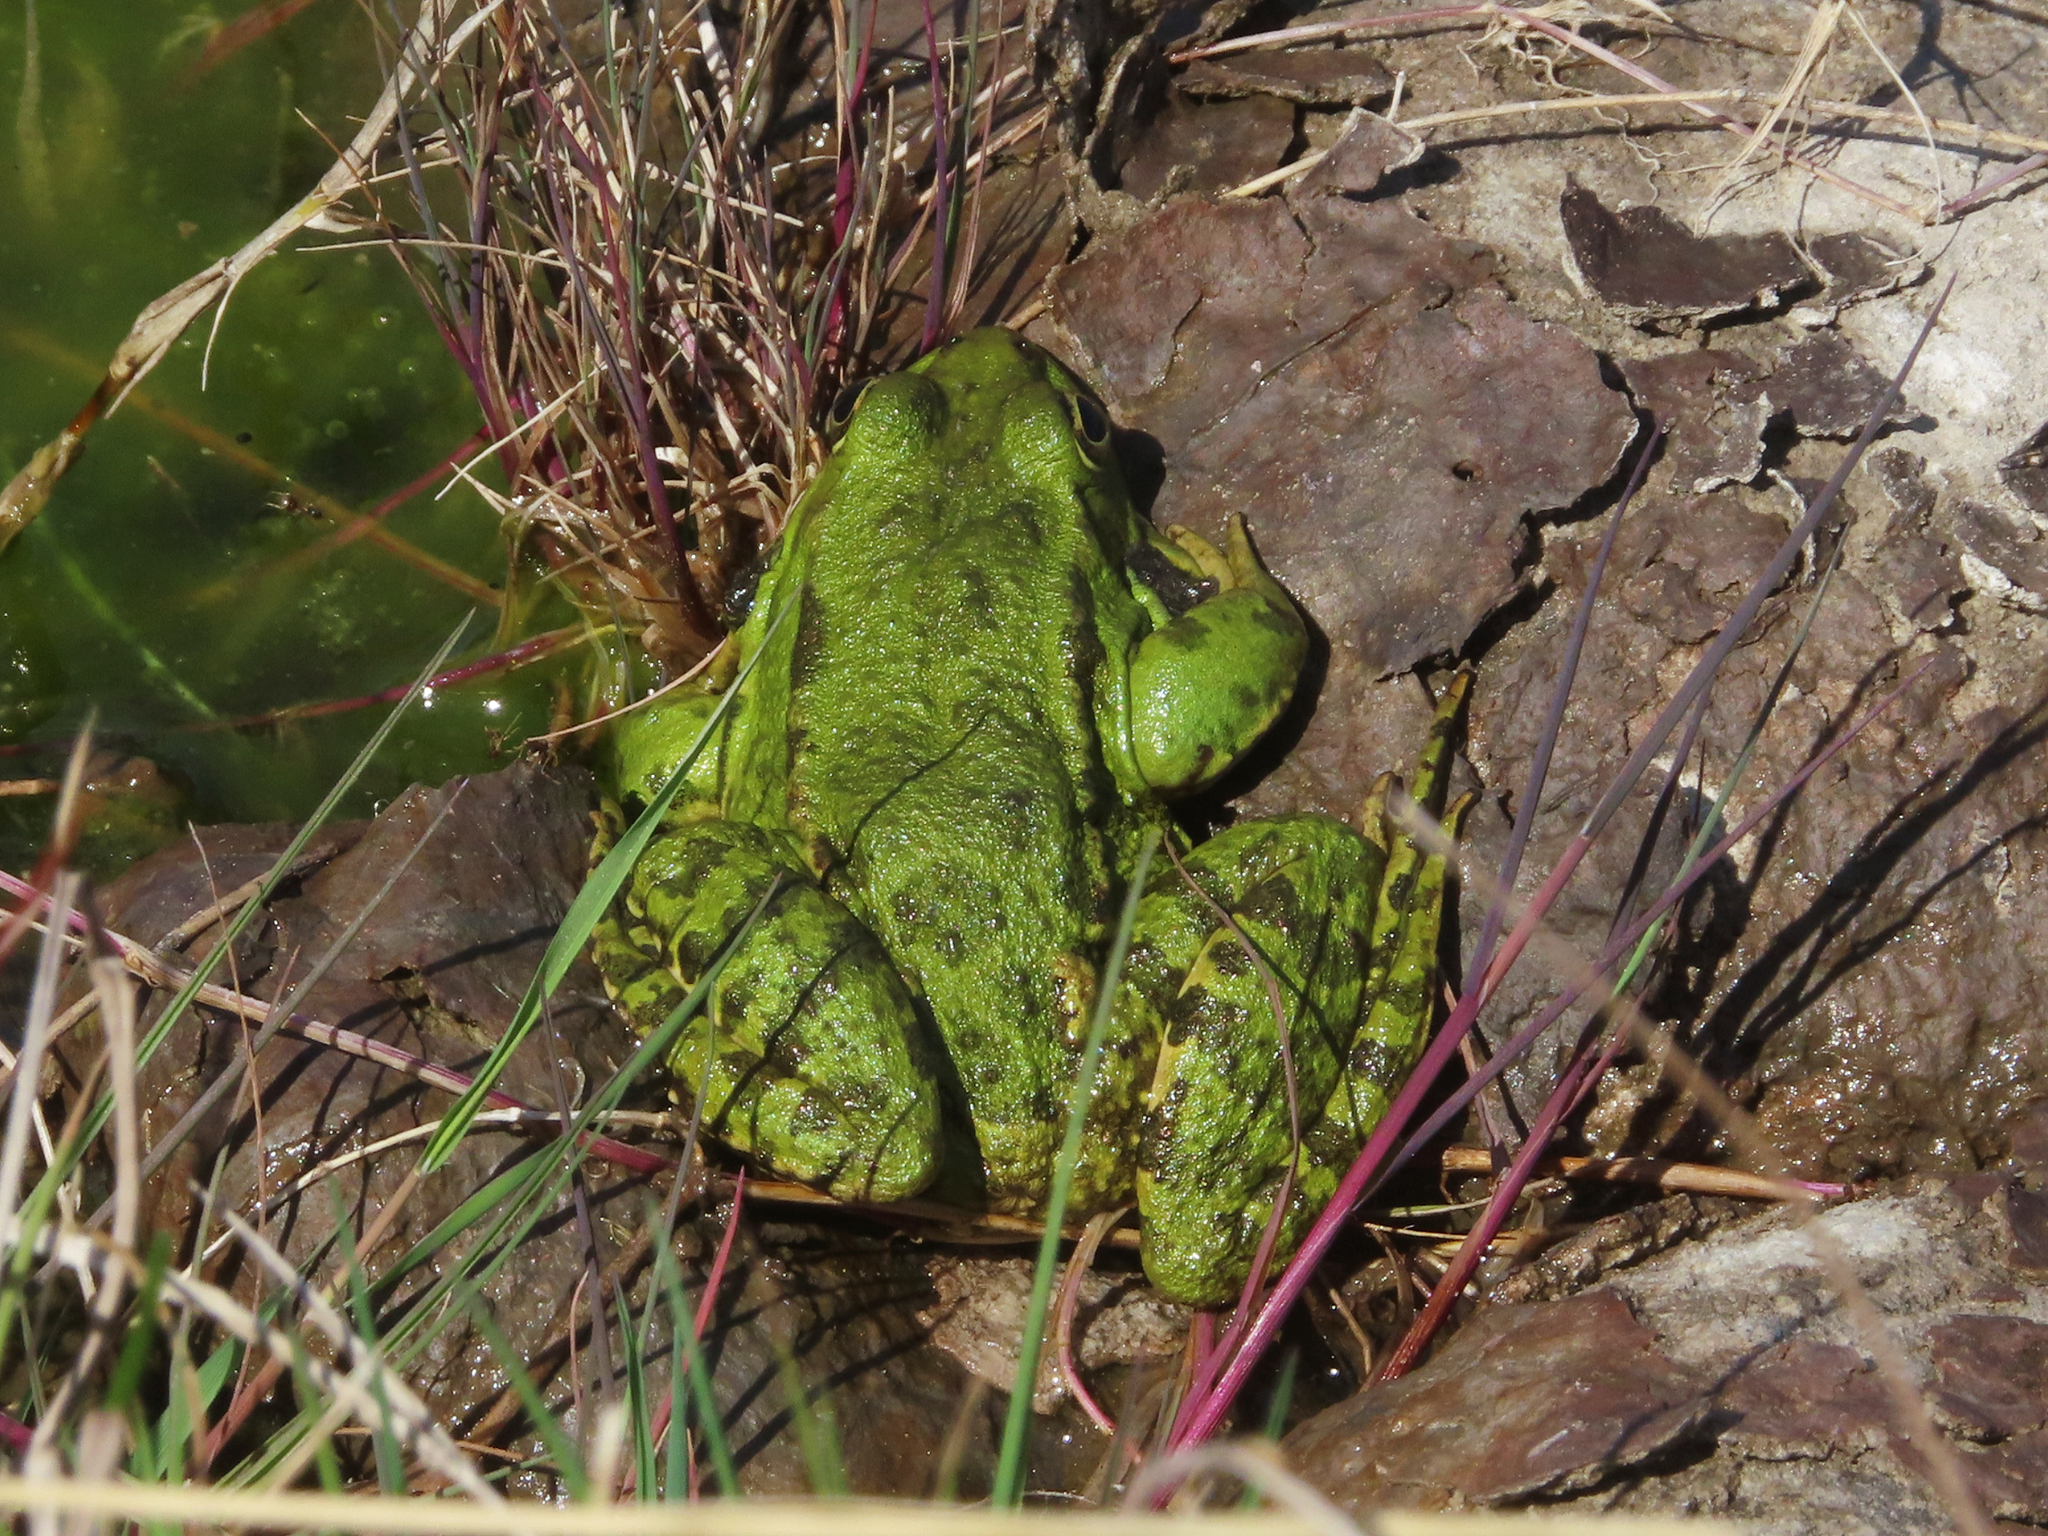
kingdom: Animalia
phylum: Chordata
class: Amphibia
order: Anura
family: Ranidae
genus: Pelophylax
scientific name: Pelophylax ridibundus
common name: Marsh frog
